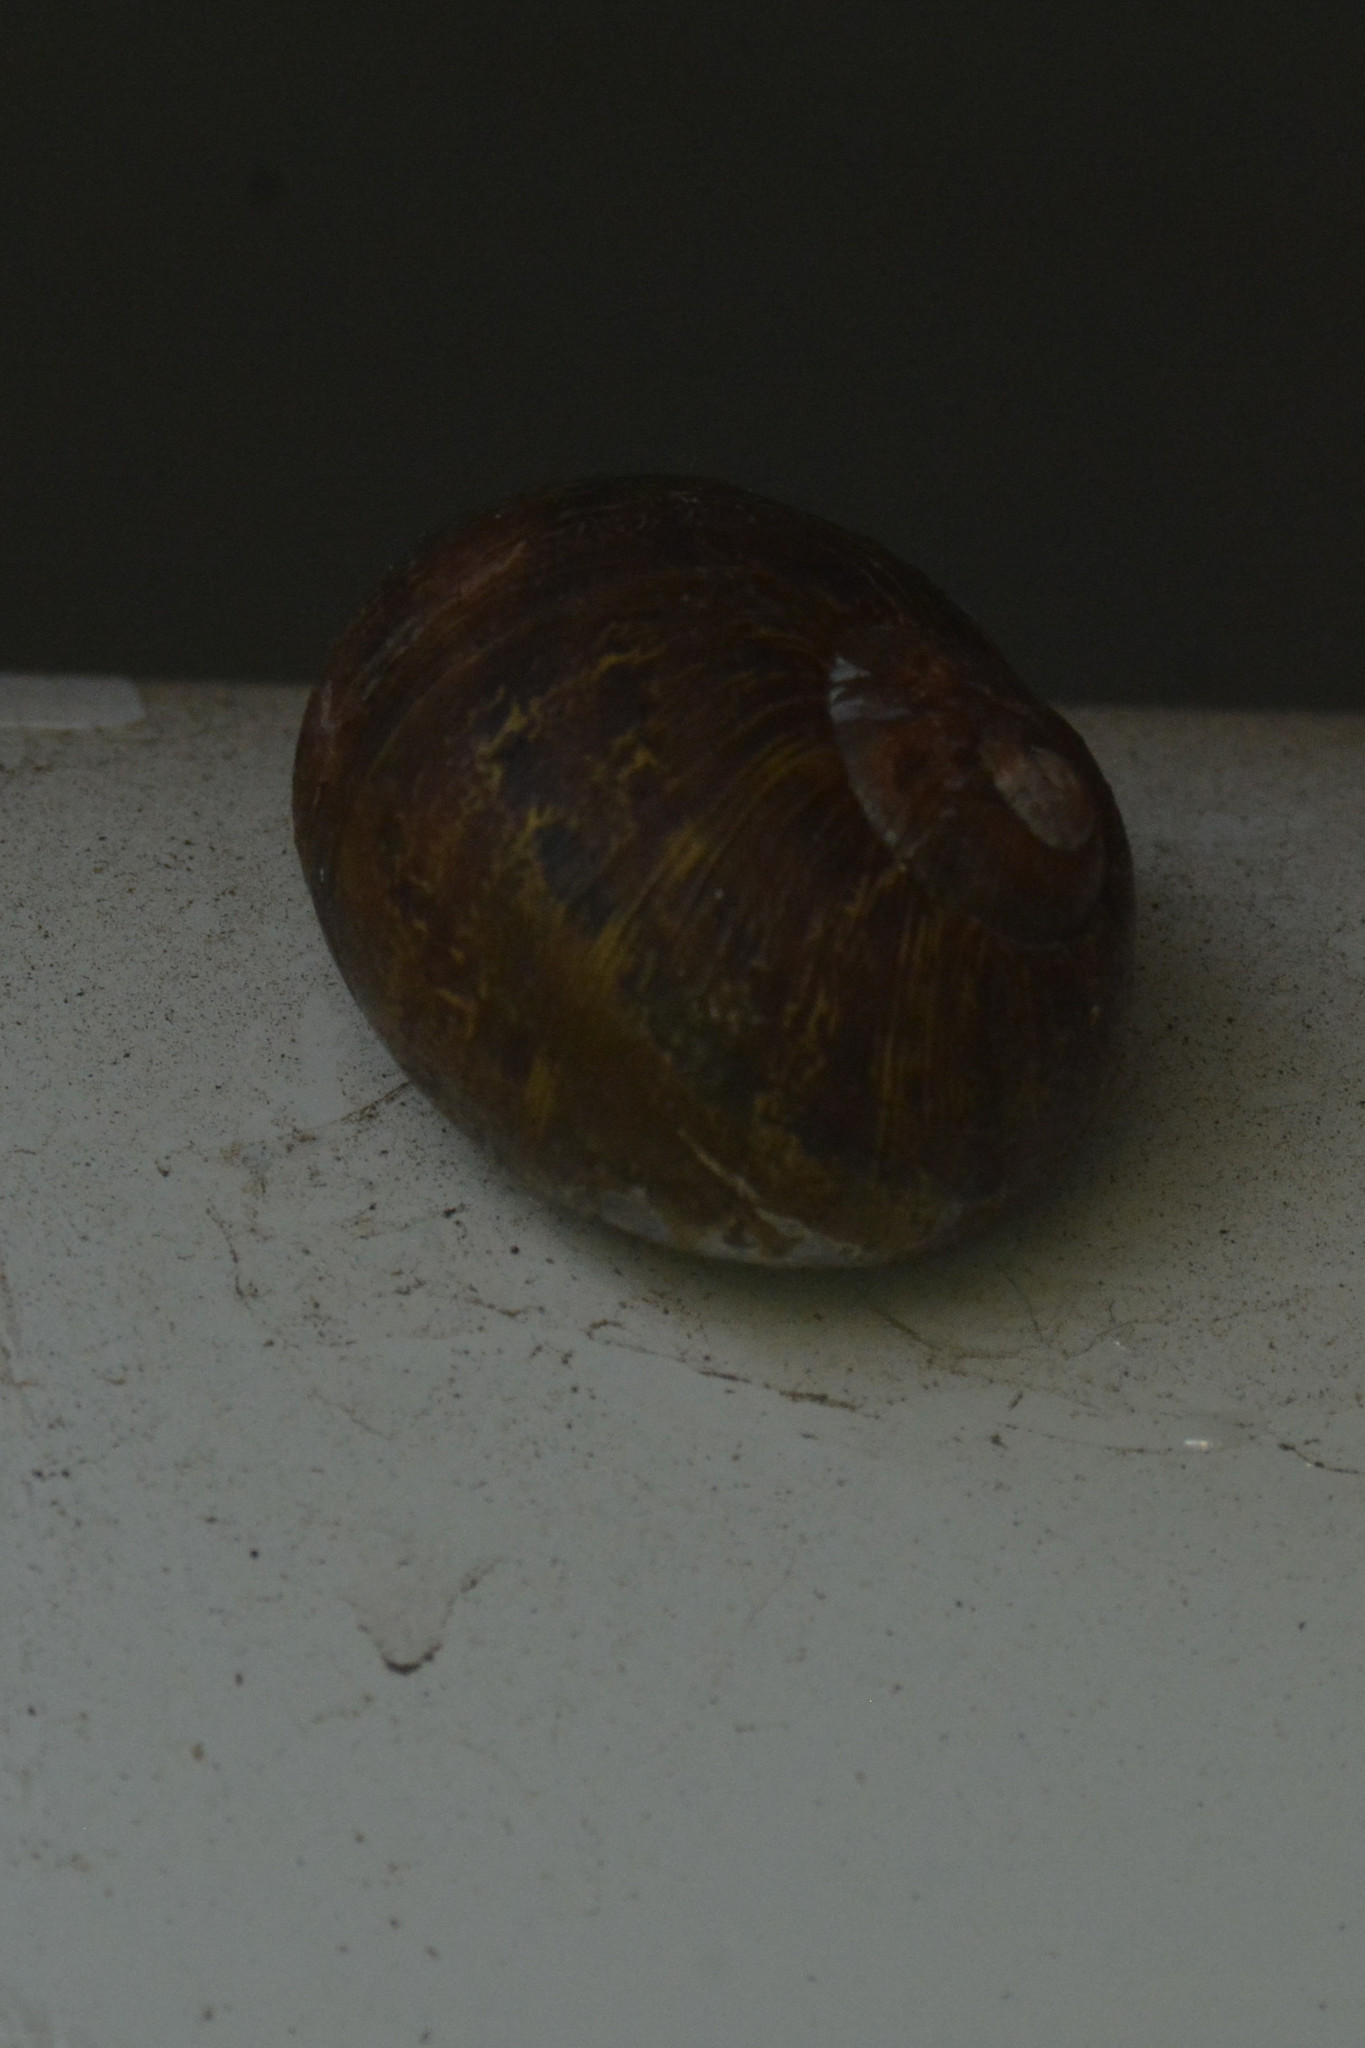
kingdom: Animalia
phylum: Mollusca
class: Gastropoda
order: Stylommatophora
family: Helicidae
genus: Cornu
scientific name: Cornu aspersum
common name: Brown garden snail
